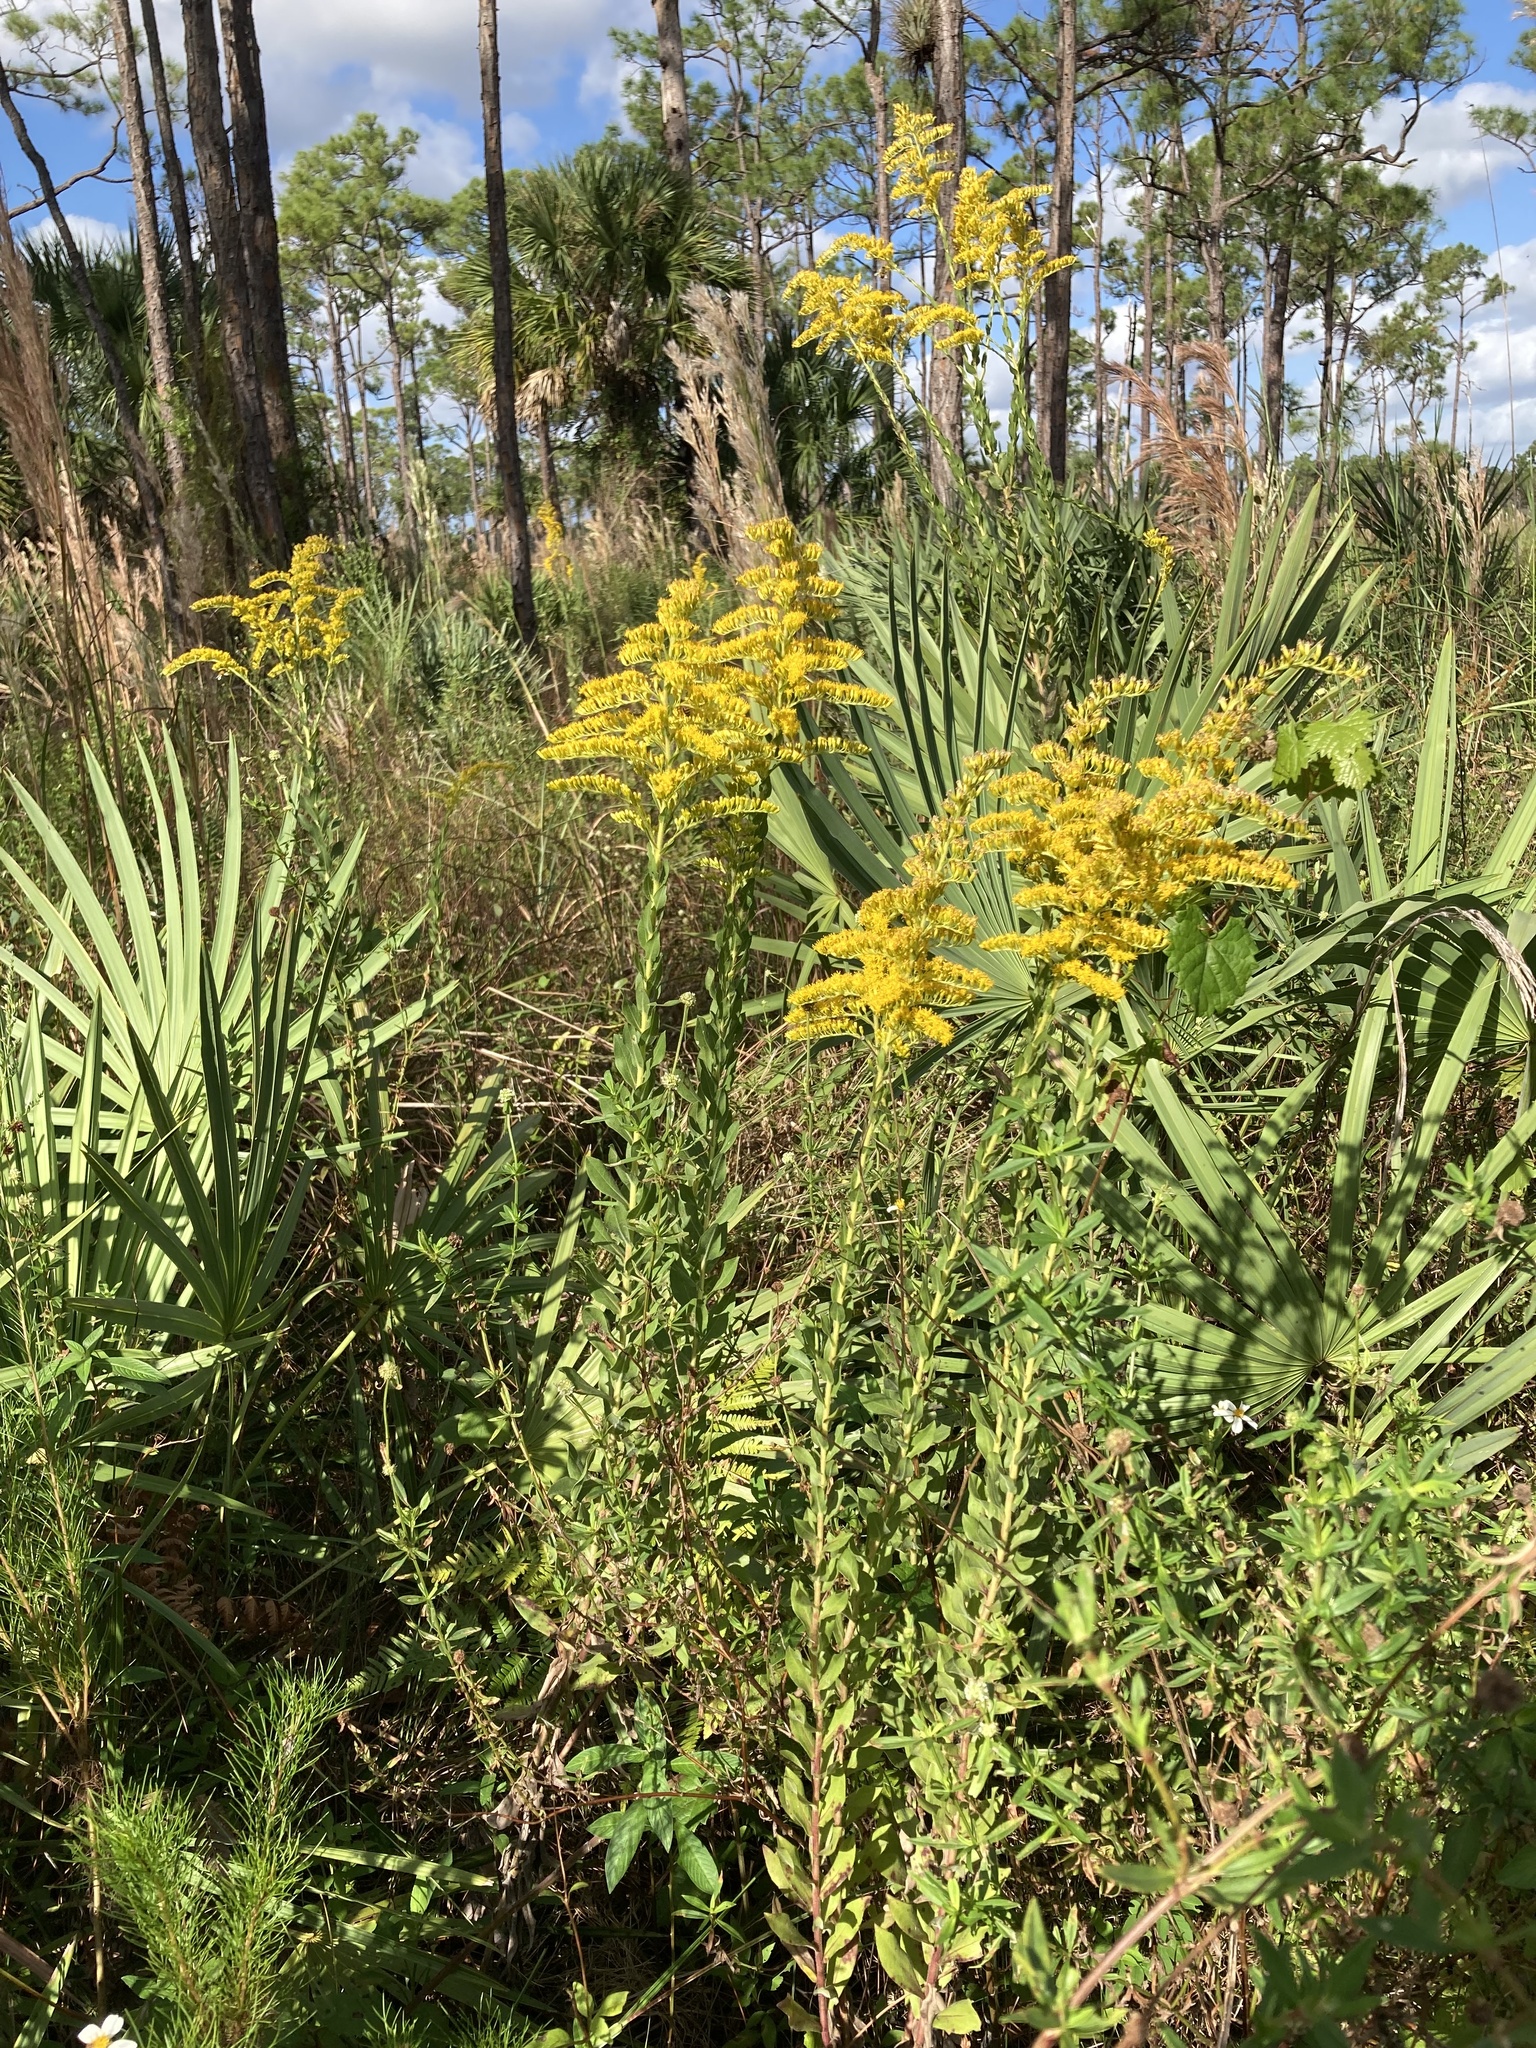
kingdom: Plantae
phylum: Tracheophyta
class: Magnoliopsida
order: Asterales
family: Asteraceae
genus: Solidago
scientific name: Solidago fistulosa
